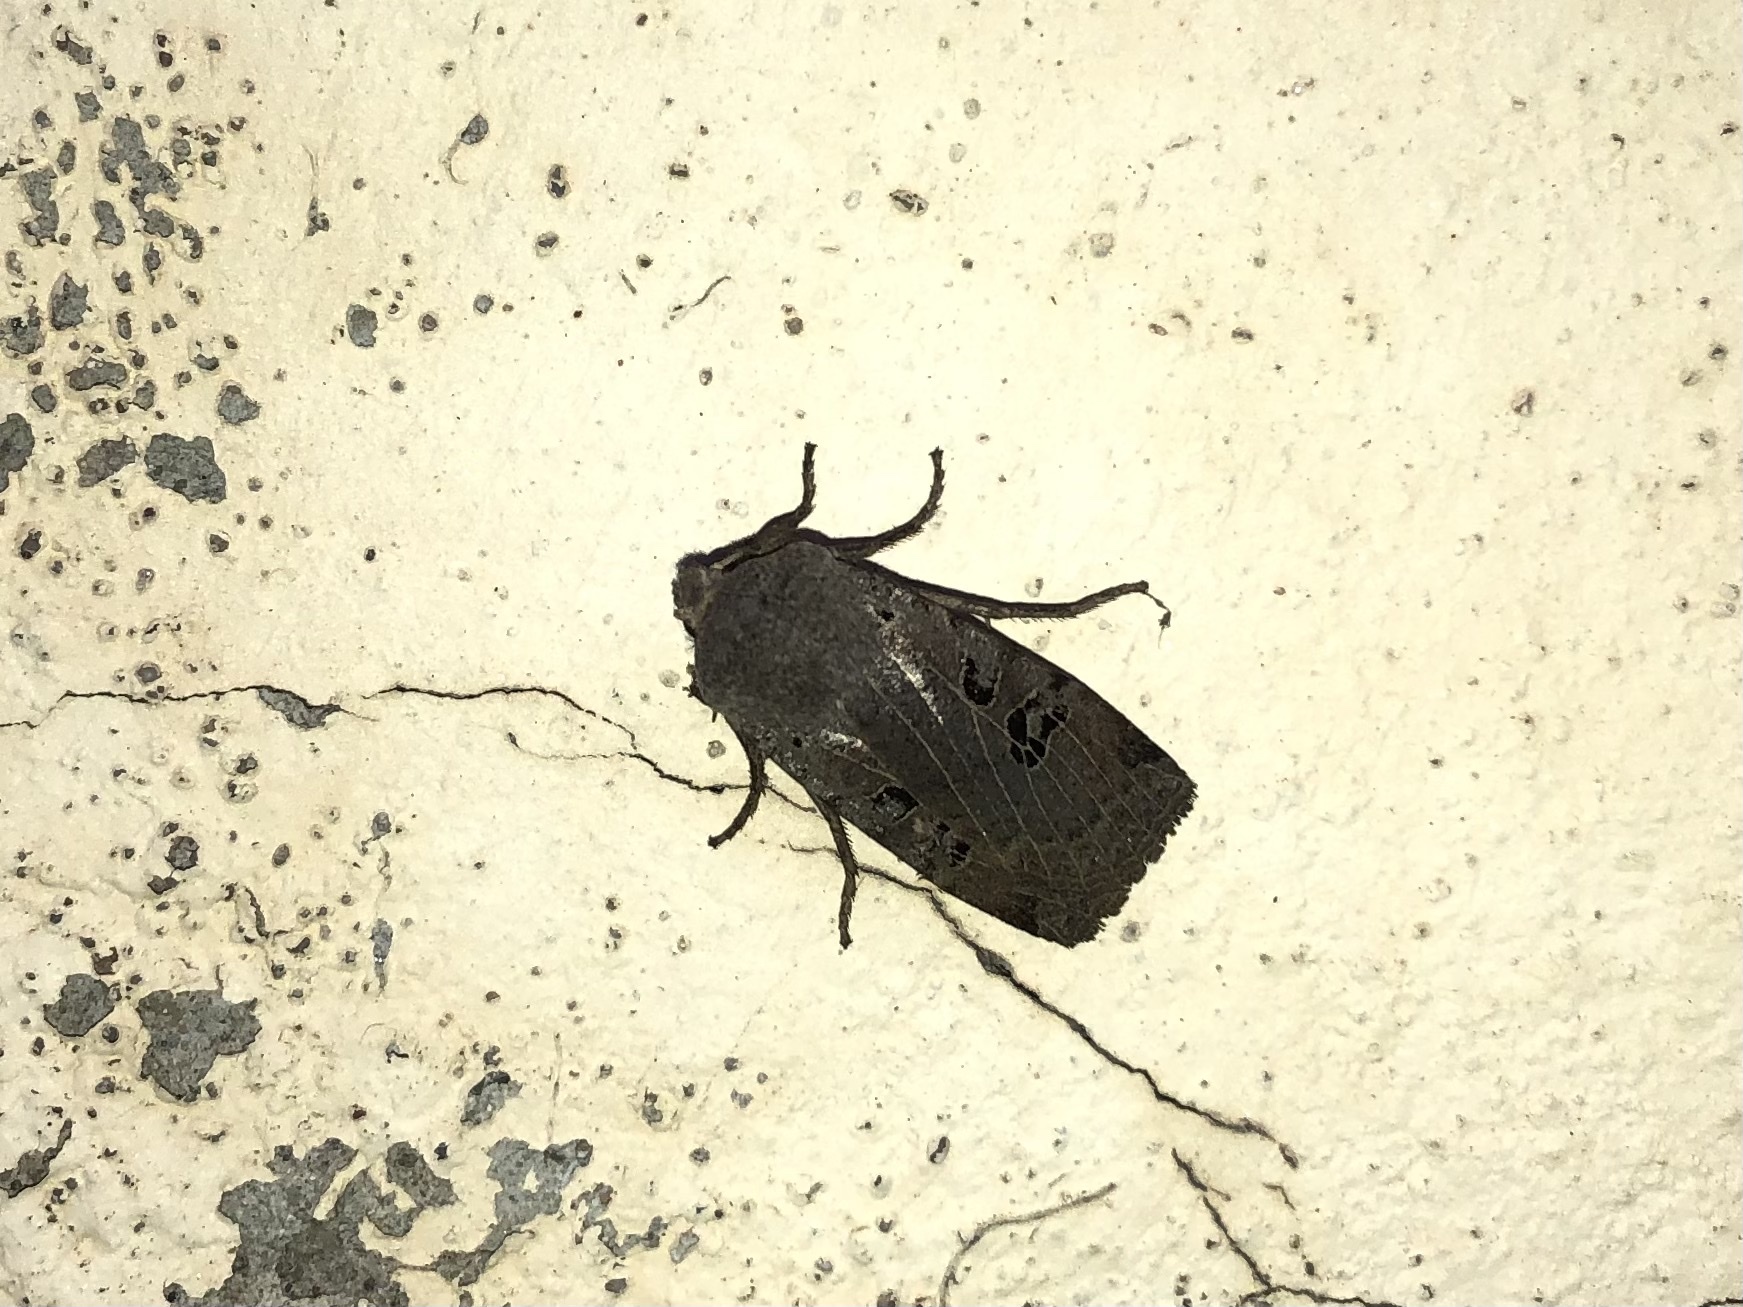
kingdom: Animalia
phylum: Arthropoda
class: Insecta
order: Lepidoptera
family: Noctuidae
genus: Conistra
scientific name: Conistra rubiginosa
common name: Black-spotted chestnut
